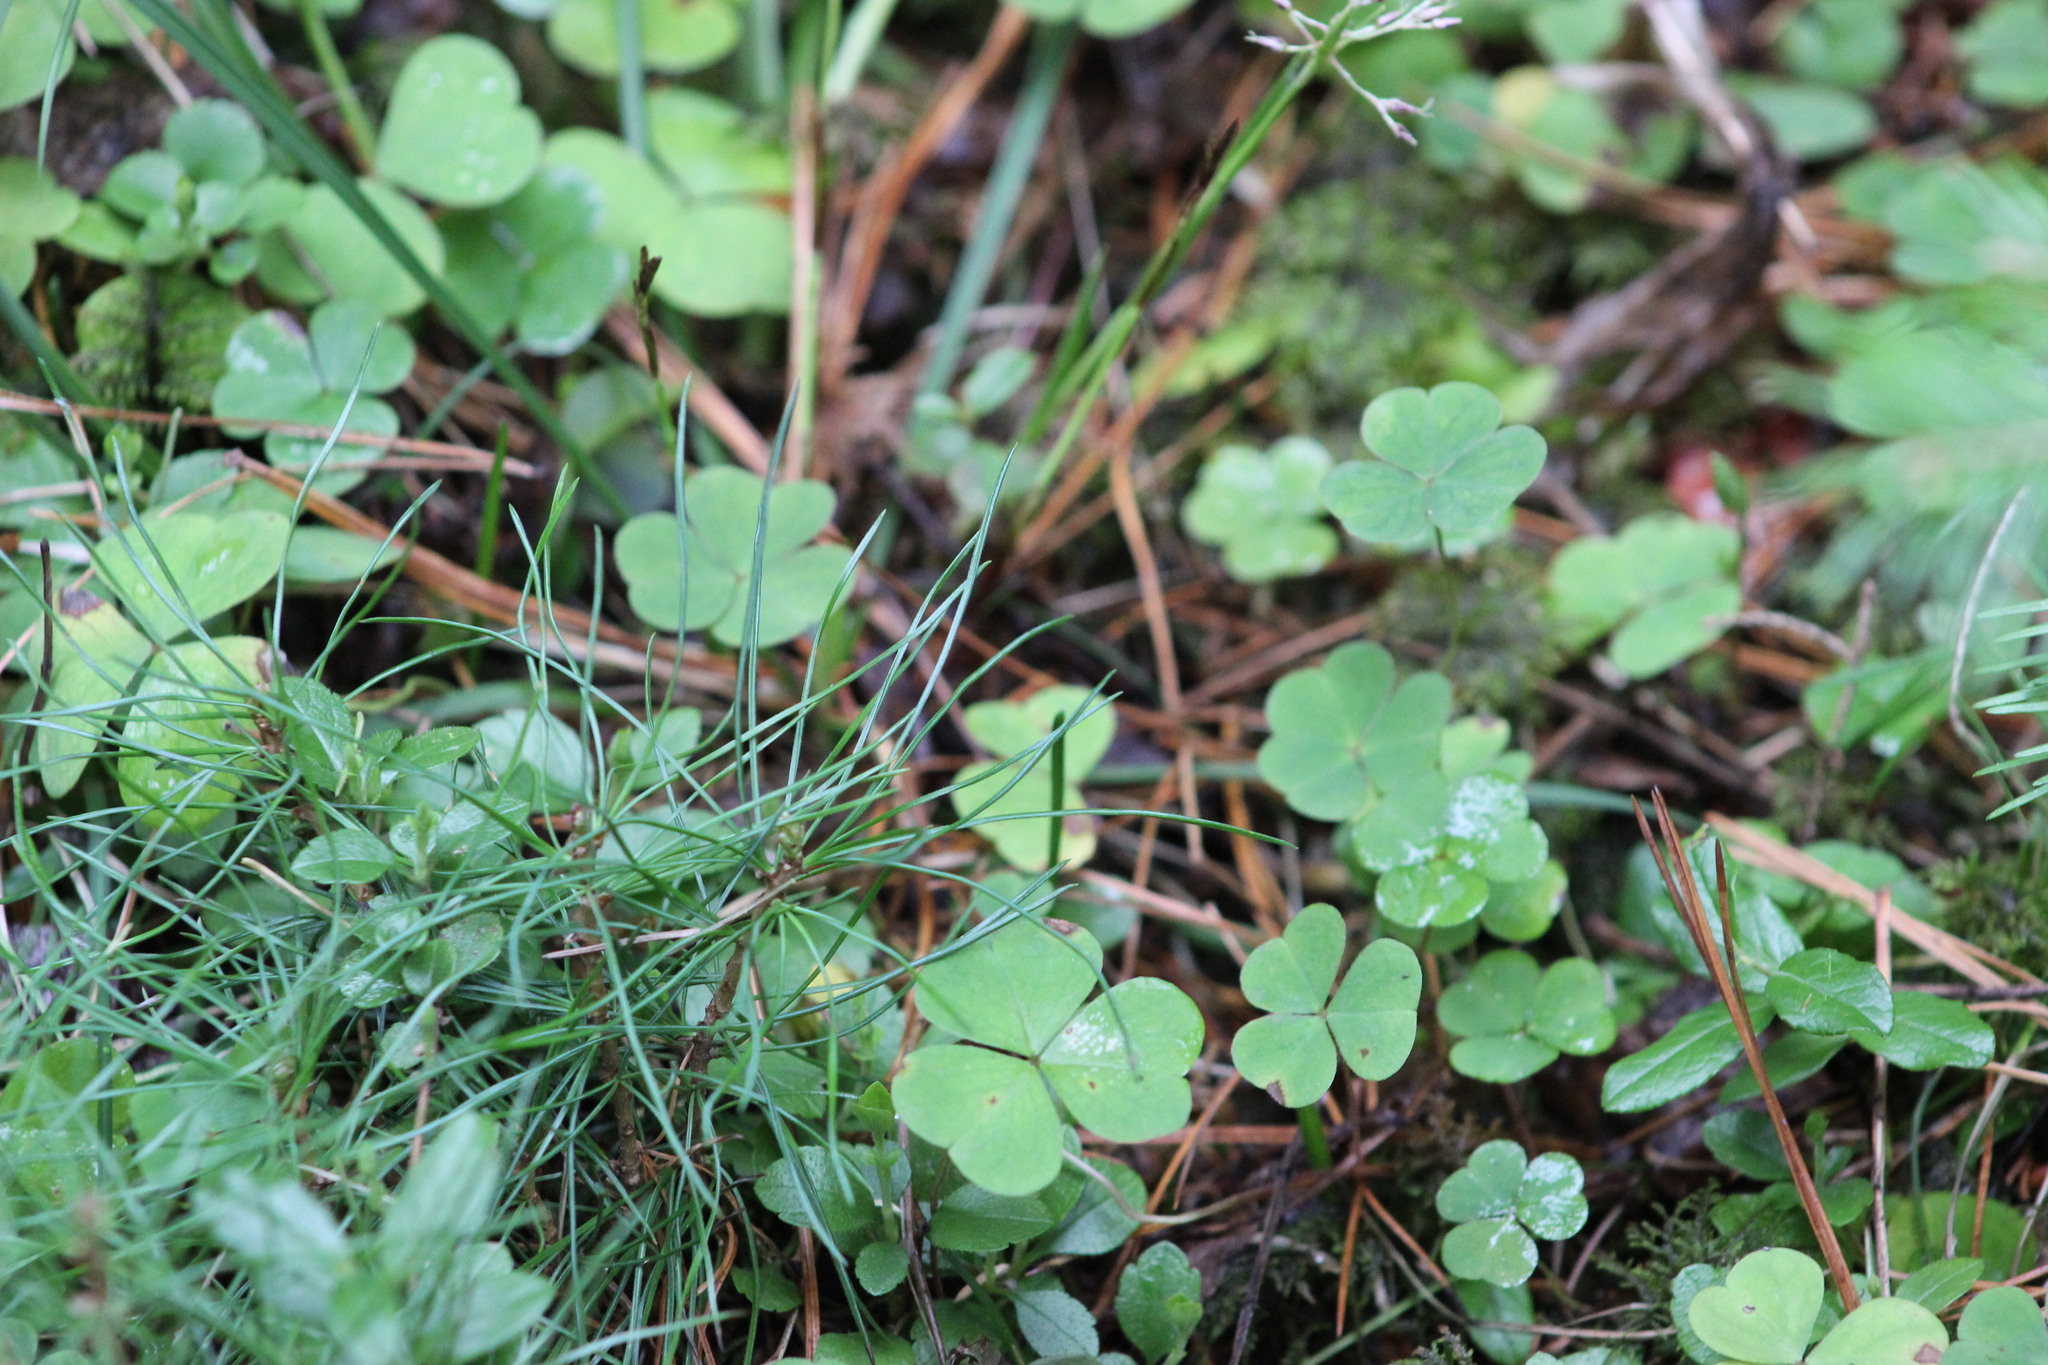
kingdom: Plantae
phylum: Tracheophyta
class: Magnoliopsida
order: Oxalidales
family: Oxalidaceae
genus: Oxalis
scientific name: Oxalis acetosella
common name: Wood-sorrel
